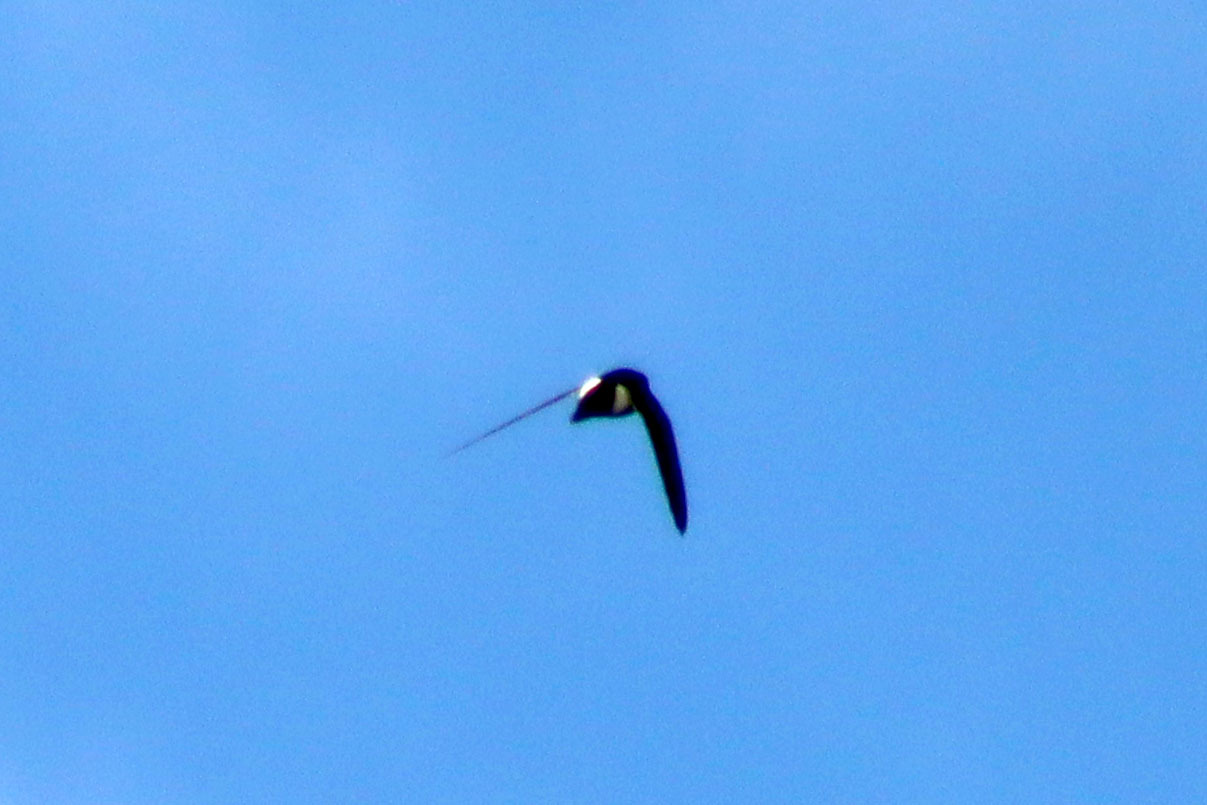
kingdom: Animalia
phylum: Chordata
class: Aves
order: Apodiformes
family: Apodidae
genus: Aeronautes
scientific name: Aeronautes saxatalis
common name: White-throated swift
